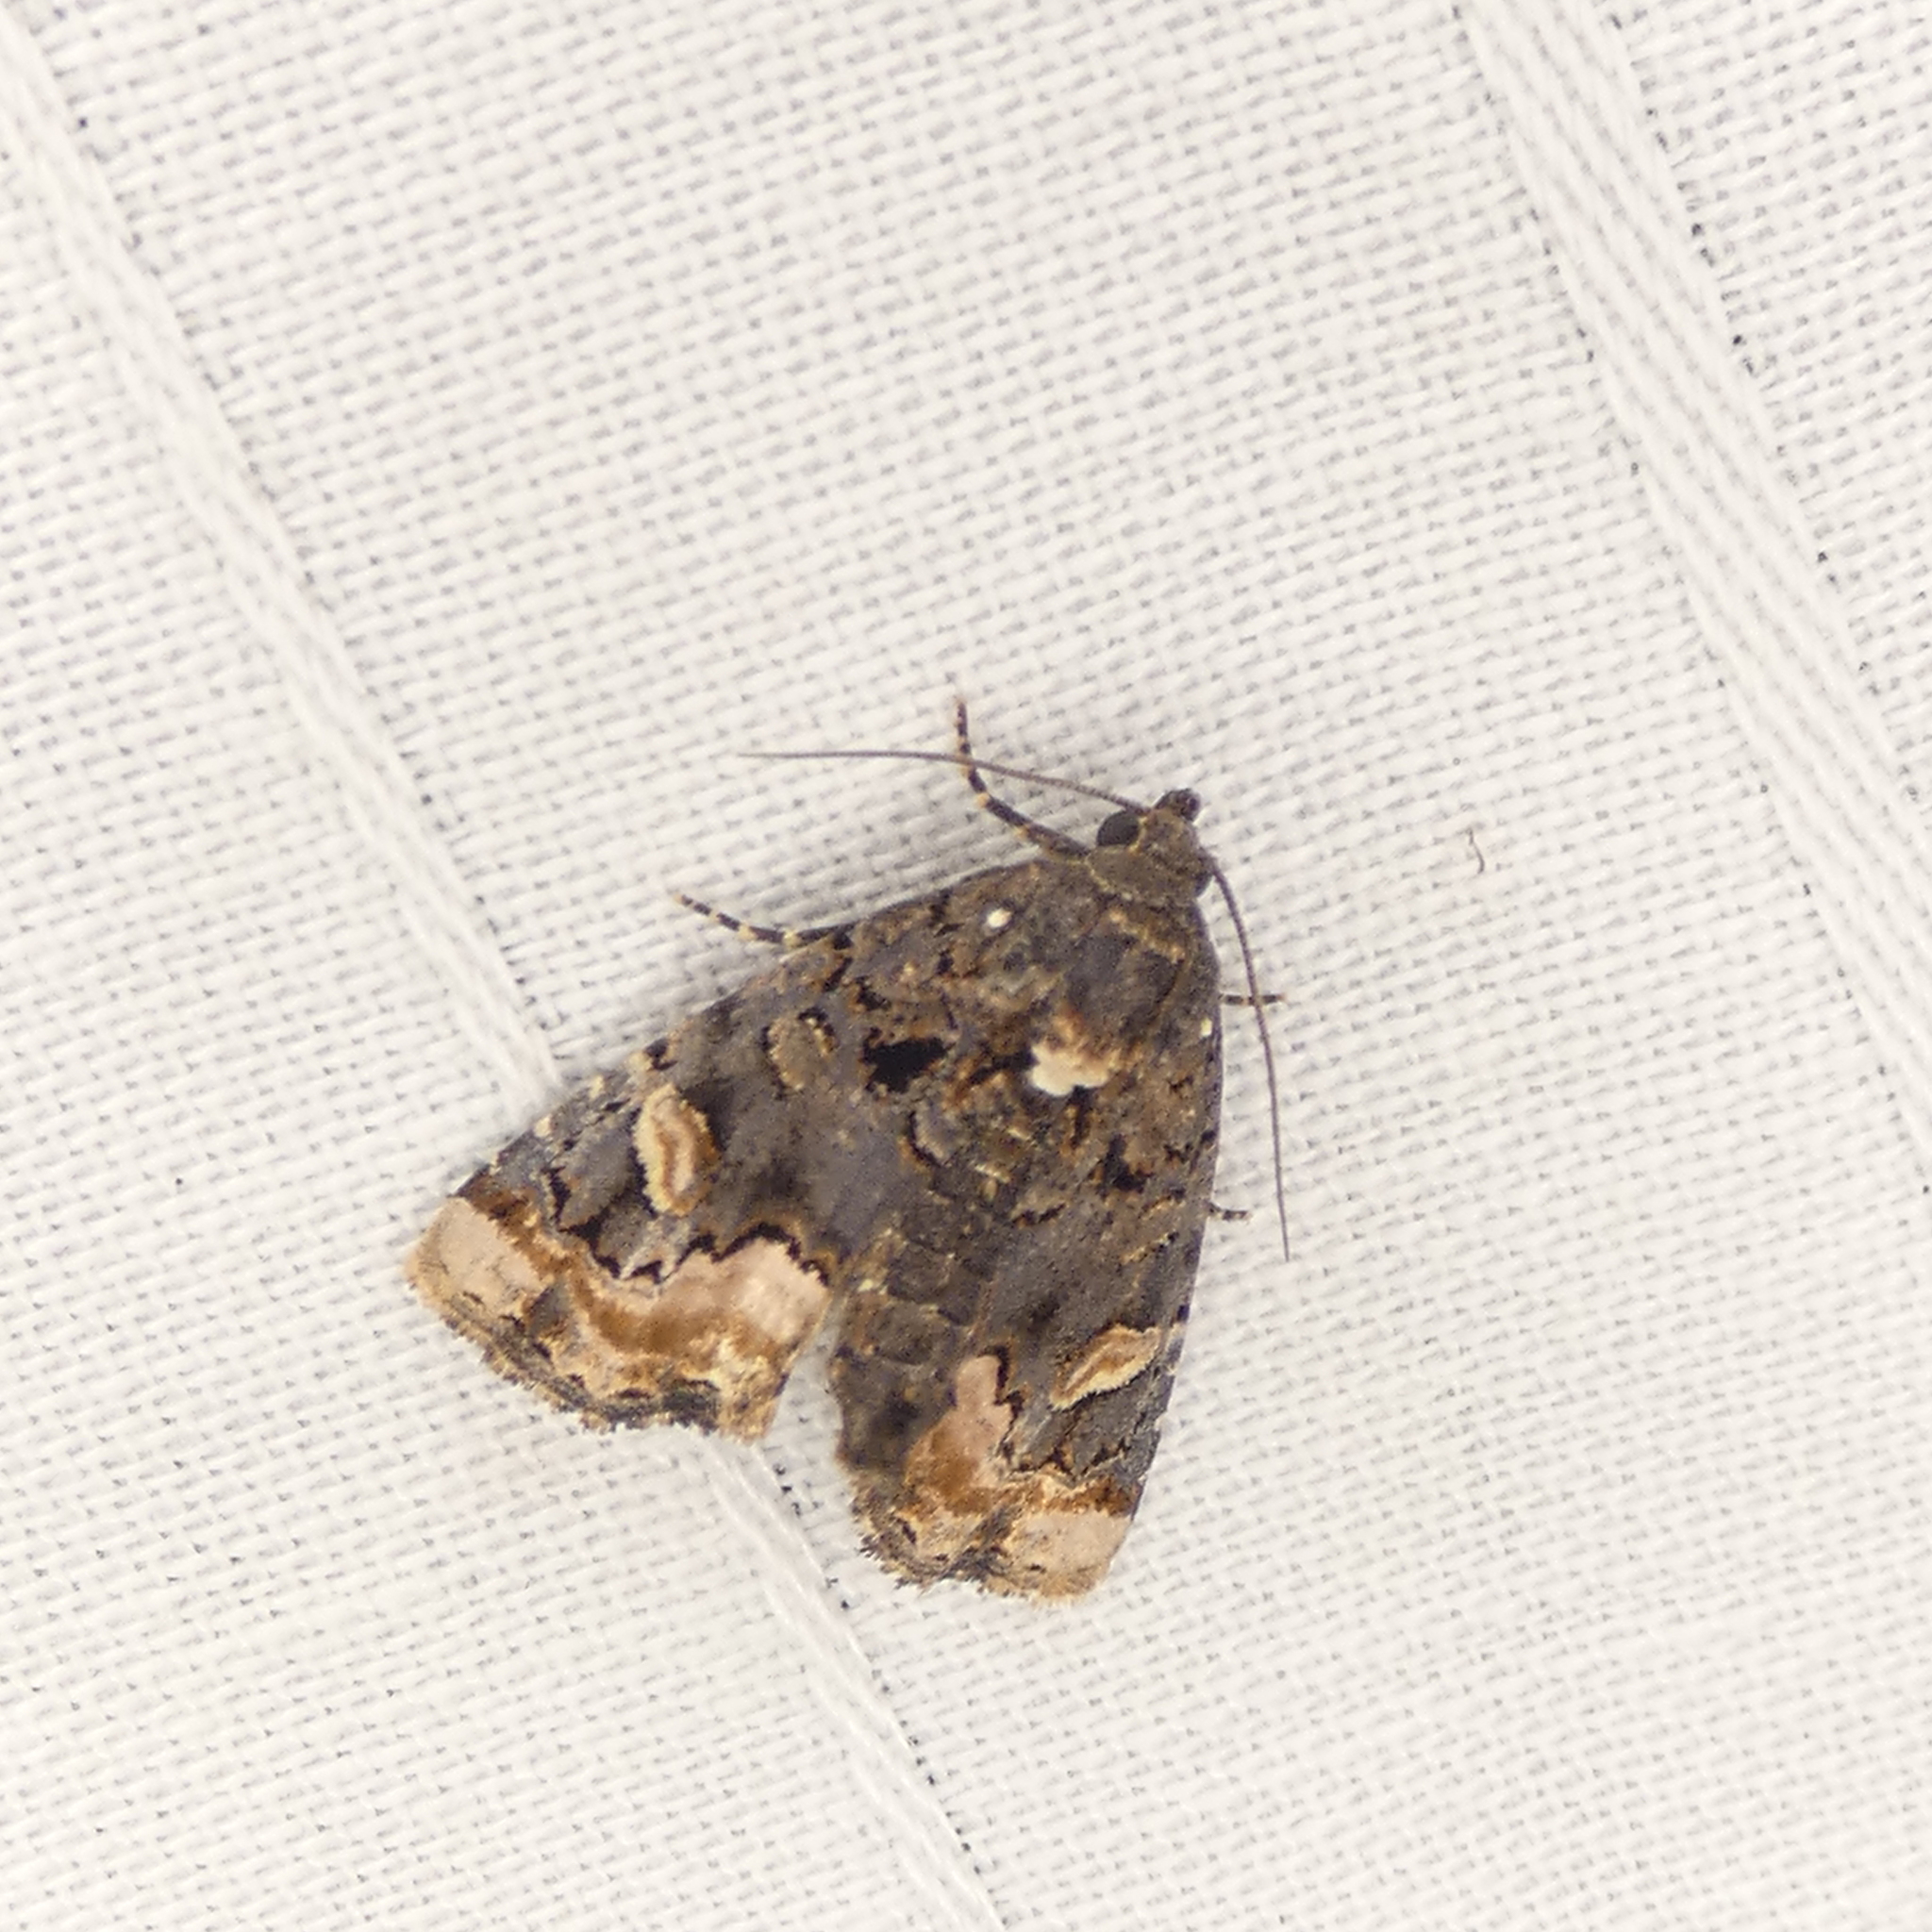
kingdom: Animalia
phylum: Arthropoda
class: Insecta
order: Lepidoptera
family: Noctuidae
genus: Homophoberia
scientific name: Homophoberia apicosa
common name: Black wedge-spot
